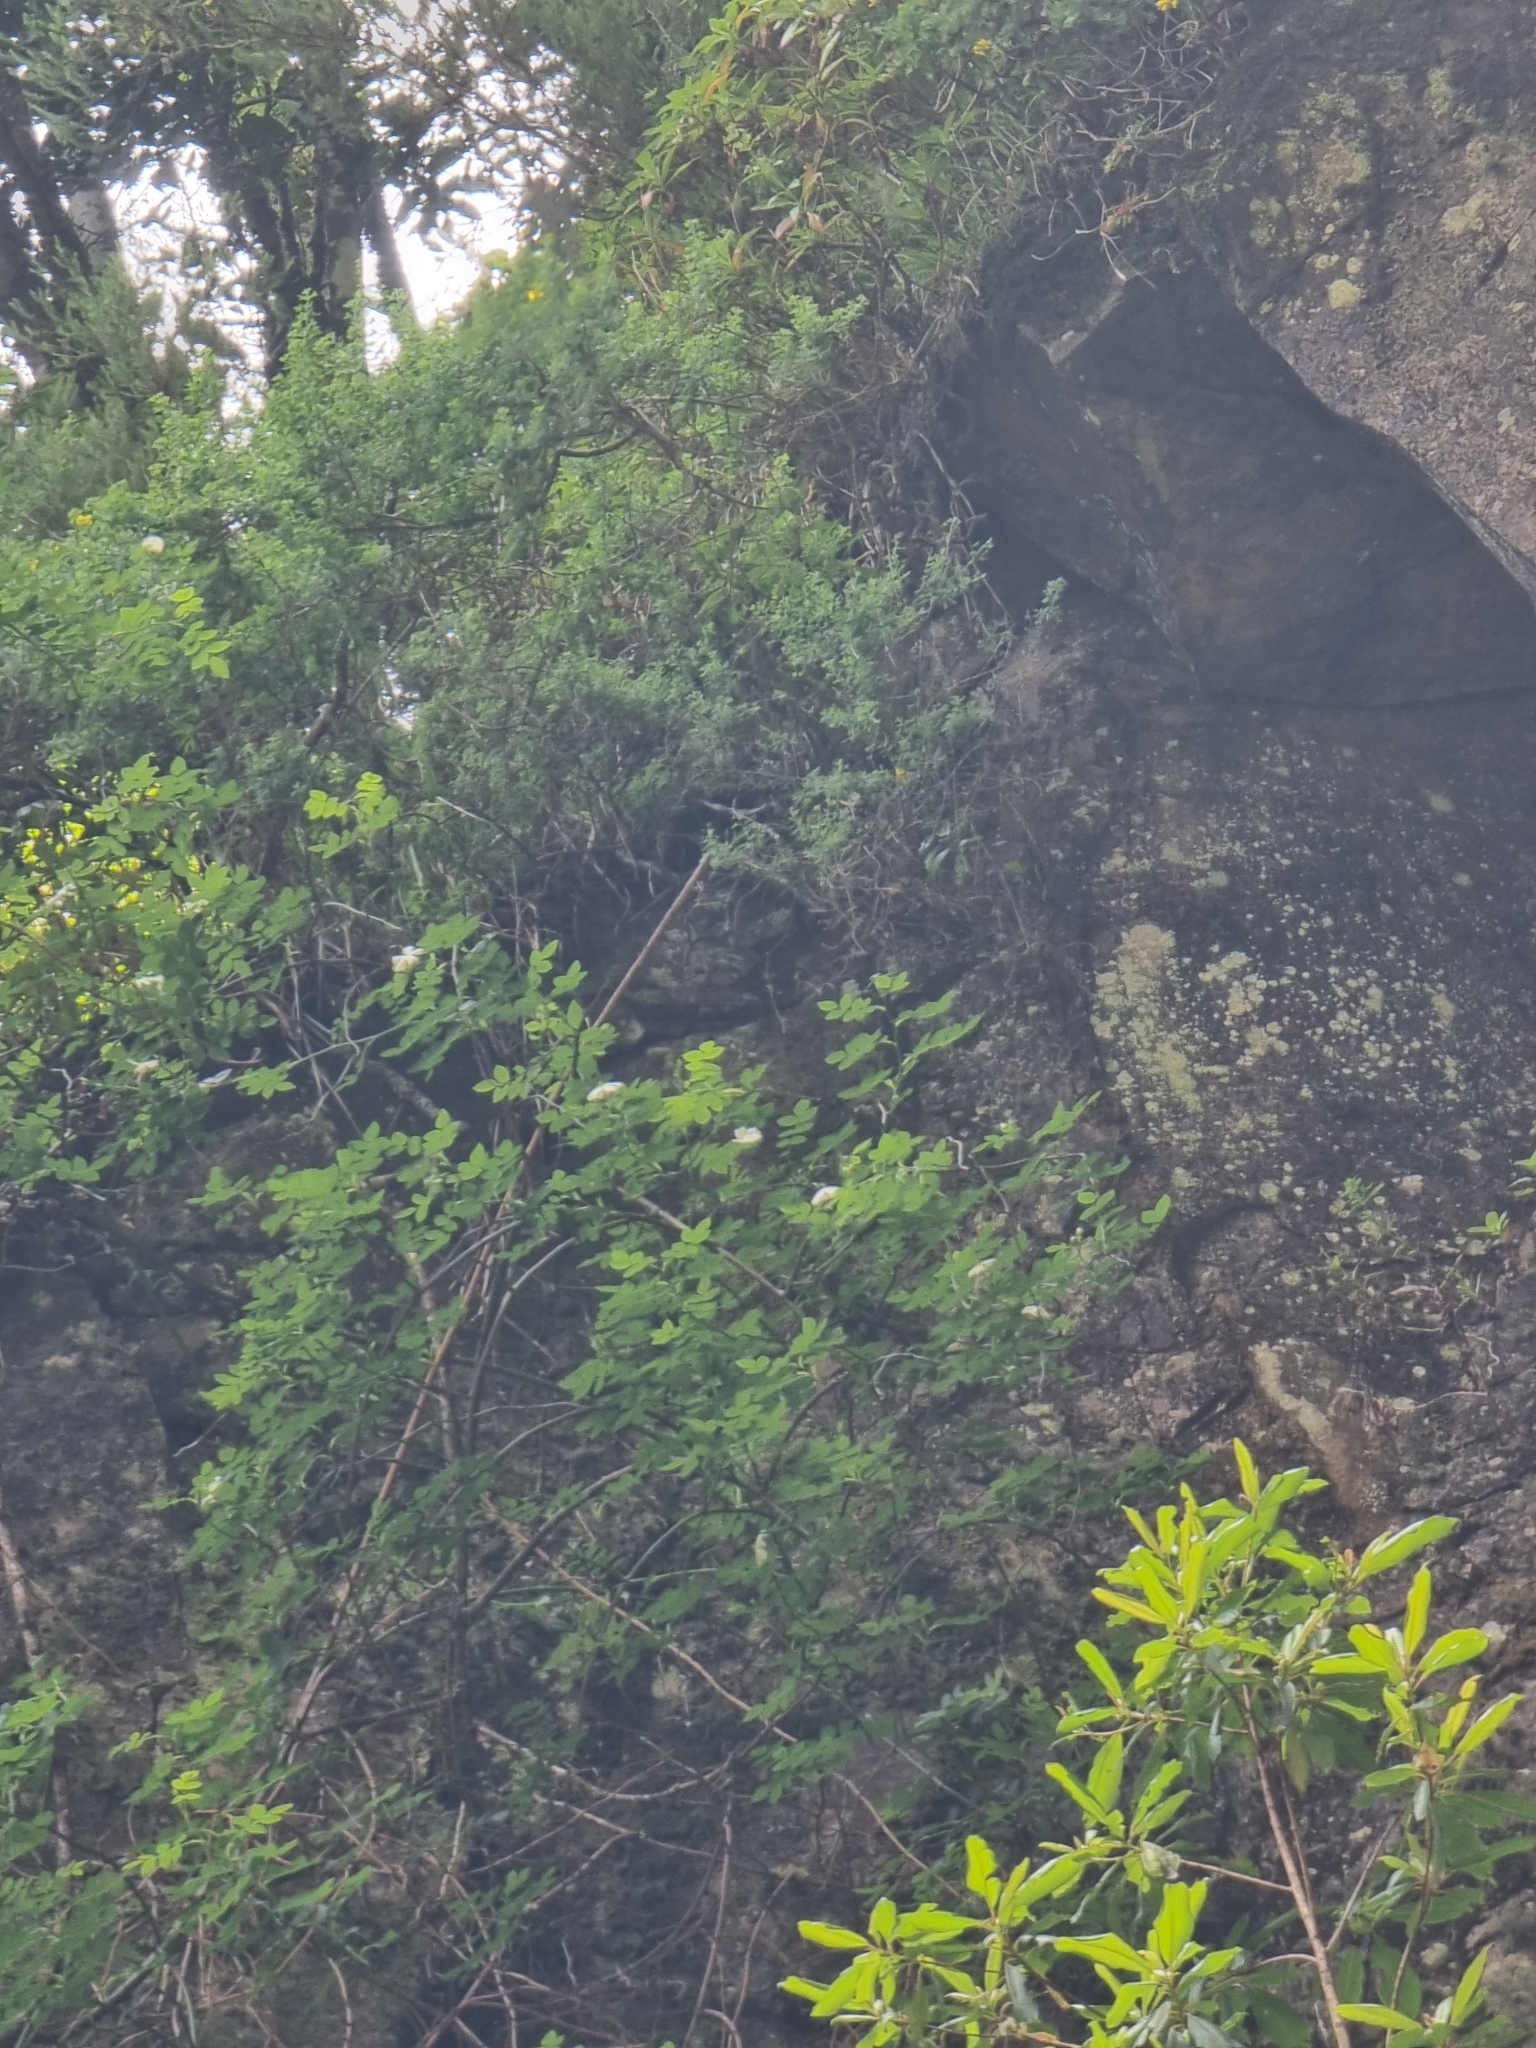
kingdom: Plantae
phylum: Tracheophyta
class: Magnoliopsida
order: Rosales
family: Rosaceae
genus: Rosa
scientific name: Rosa canina
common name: Dog rose
